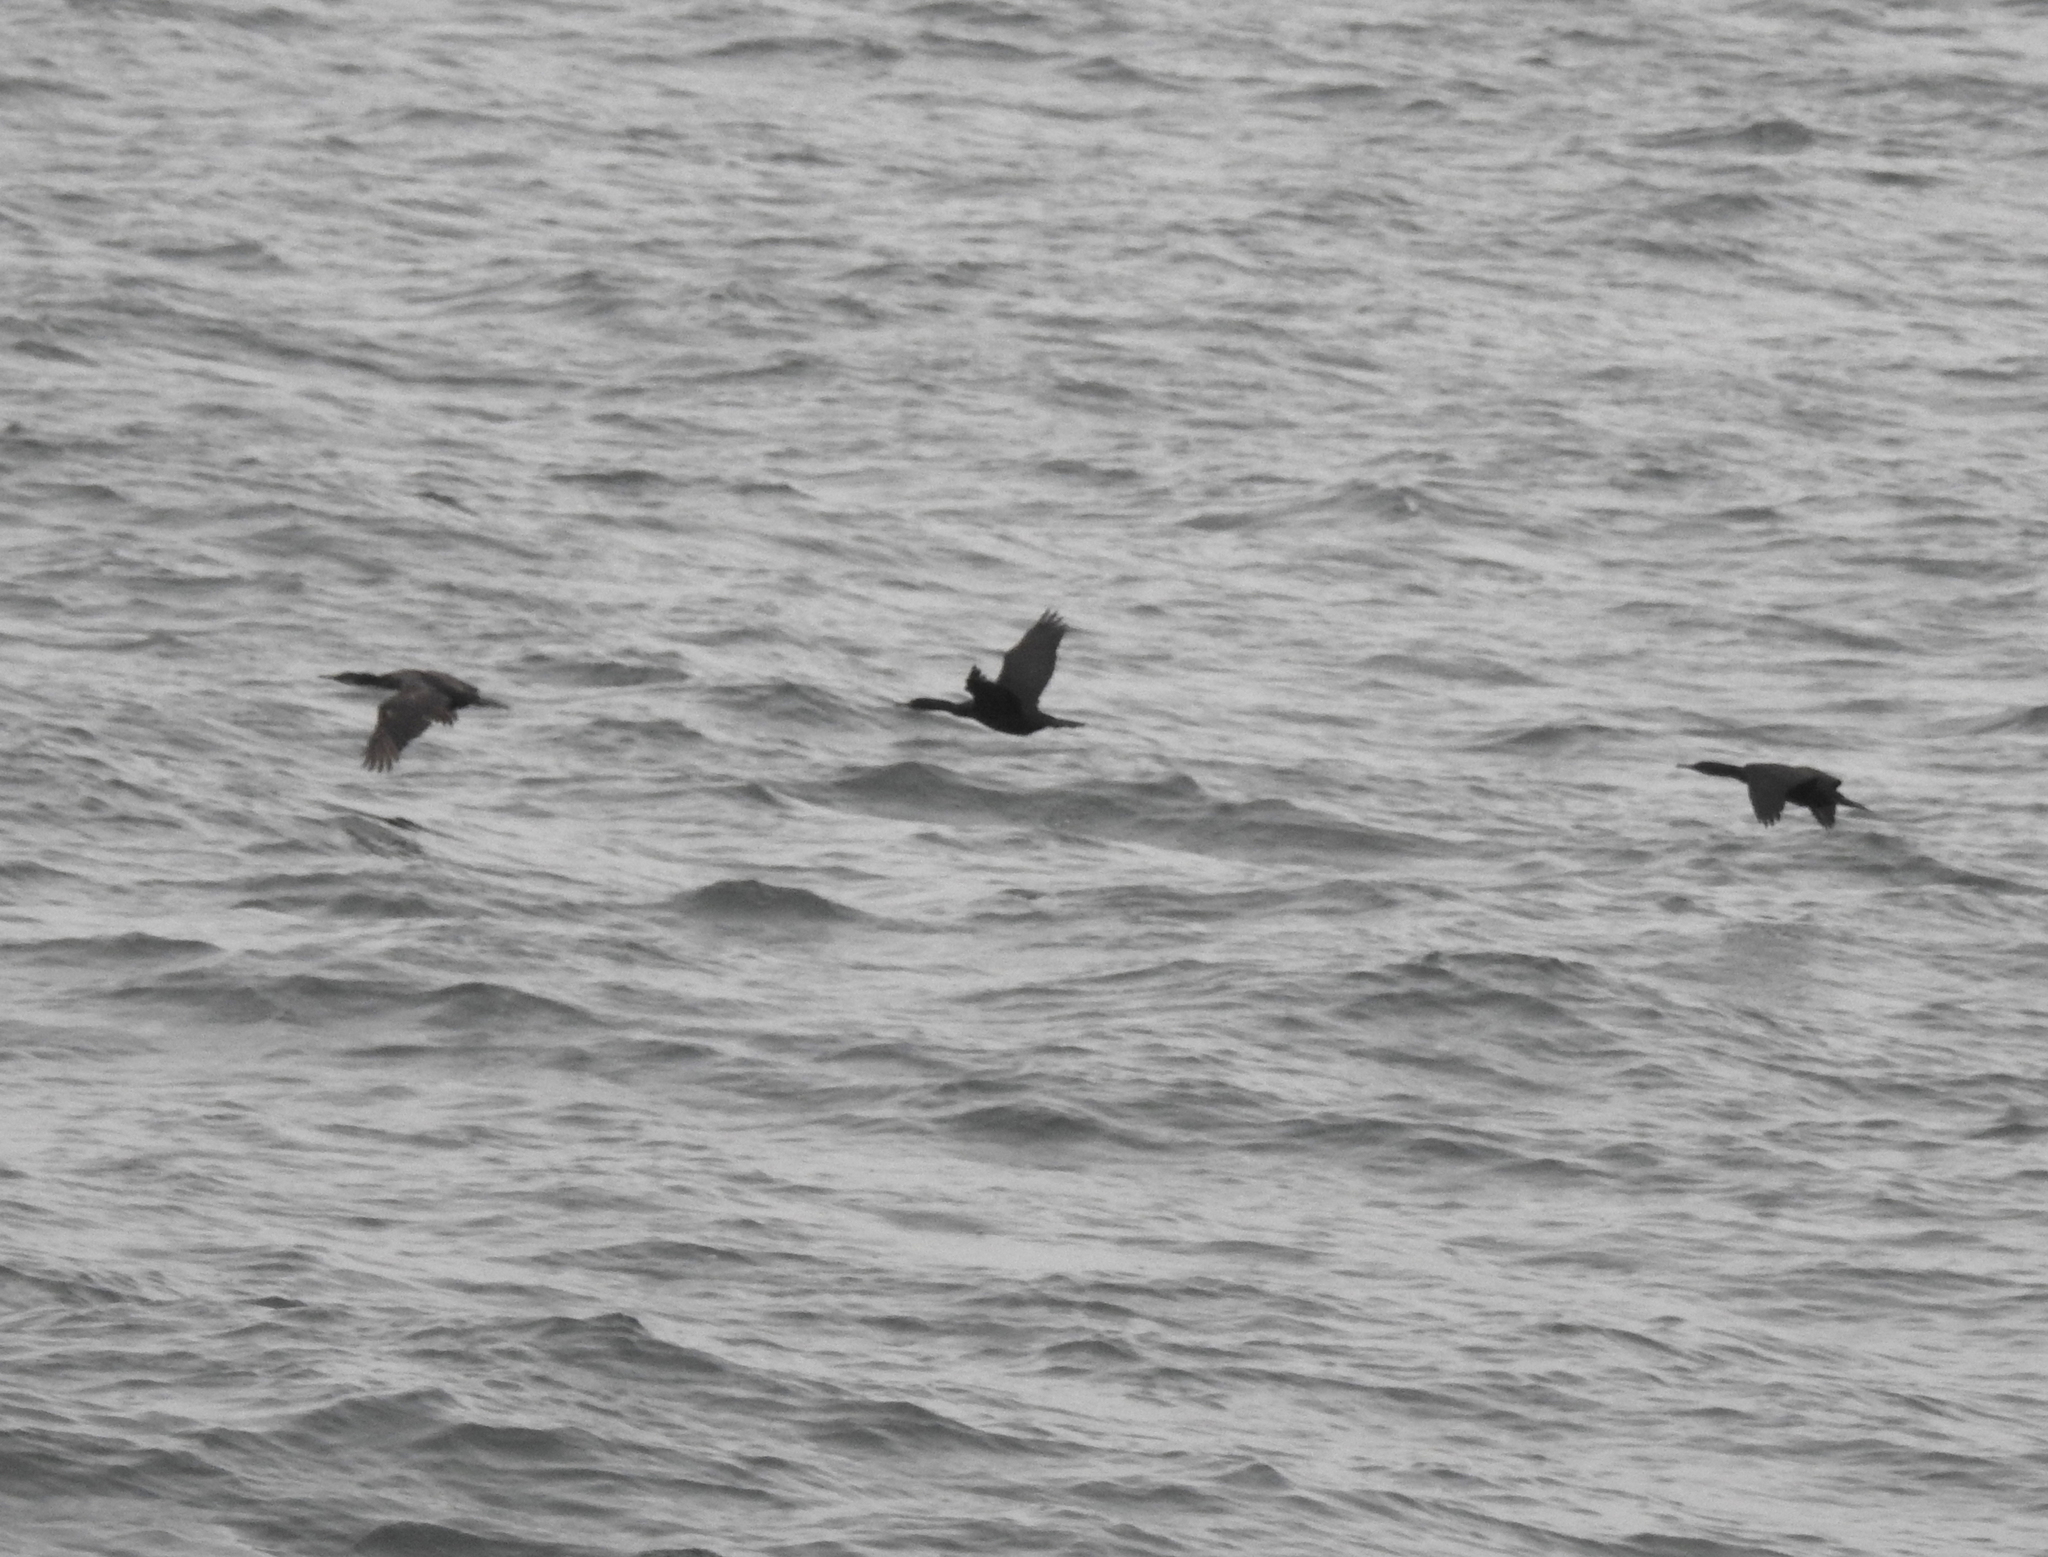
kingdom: Animalia
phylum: Chordata
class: Aves
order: Suliformes
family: Phalacrocoracidae
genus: Urile
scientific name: Urile penicillatus
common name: Brandt's cormorant
